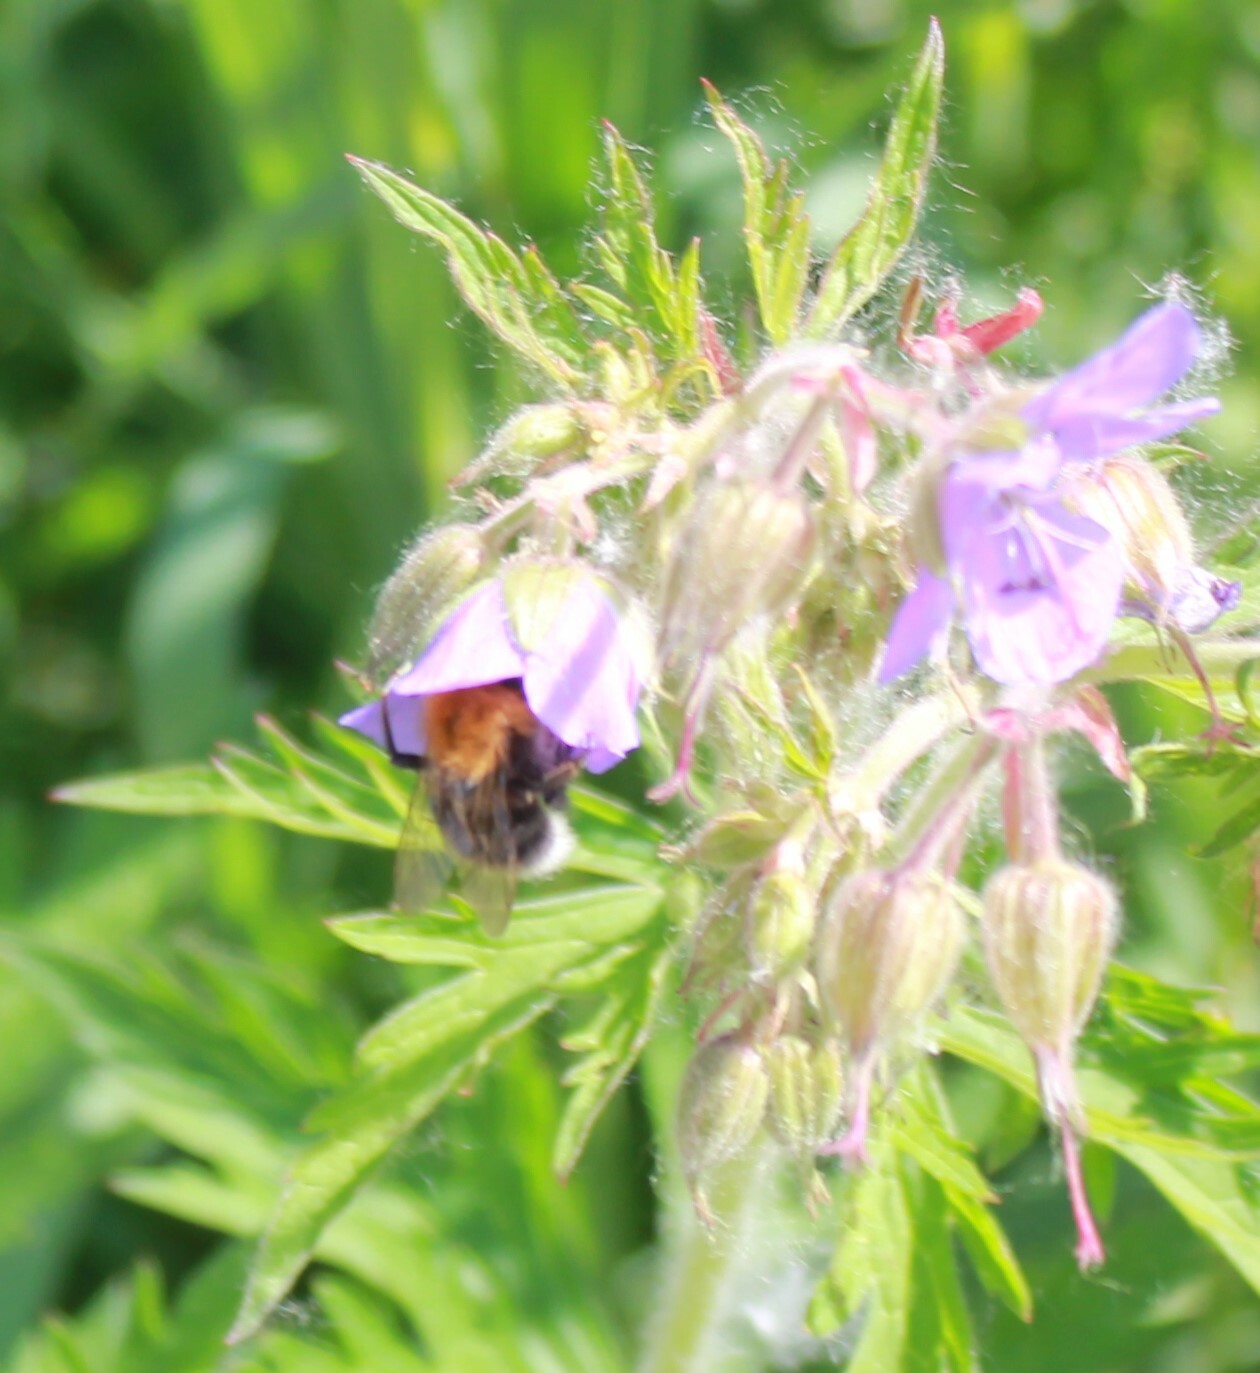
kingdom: Animalia
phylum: Arthropoda
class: Insecta
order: Hymenoptera
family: Apidae
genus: Bombus
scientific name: Bombus hypnorum
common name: New garden bumblebee
